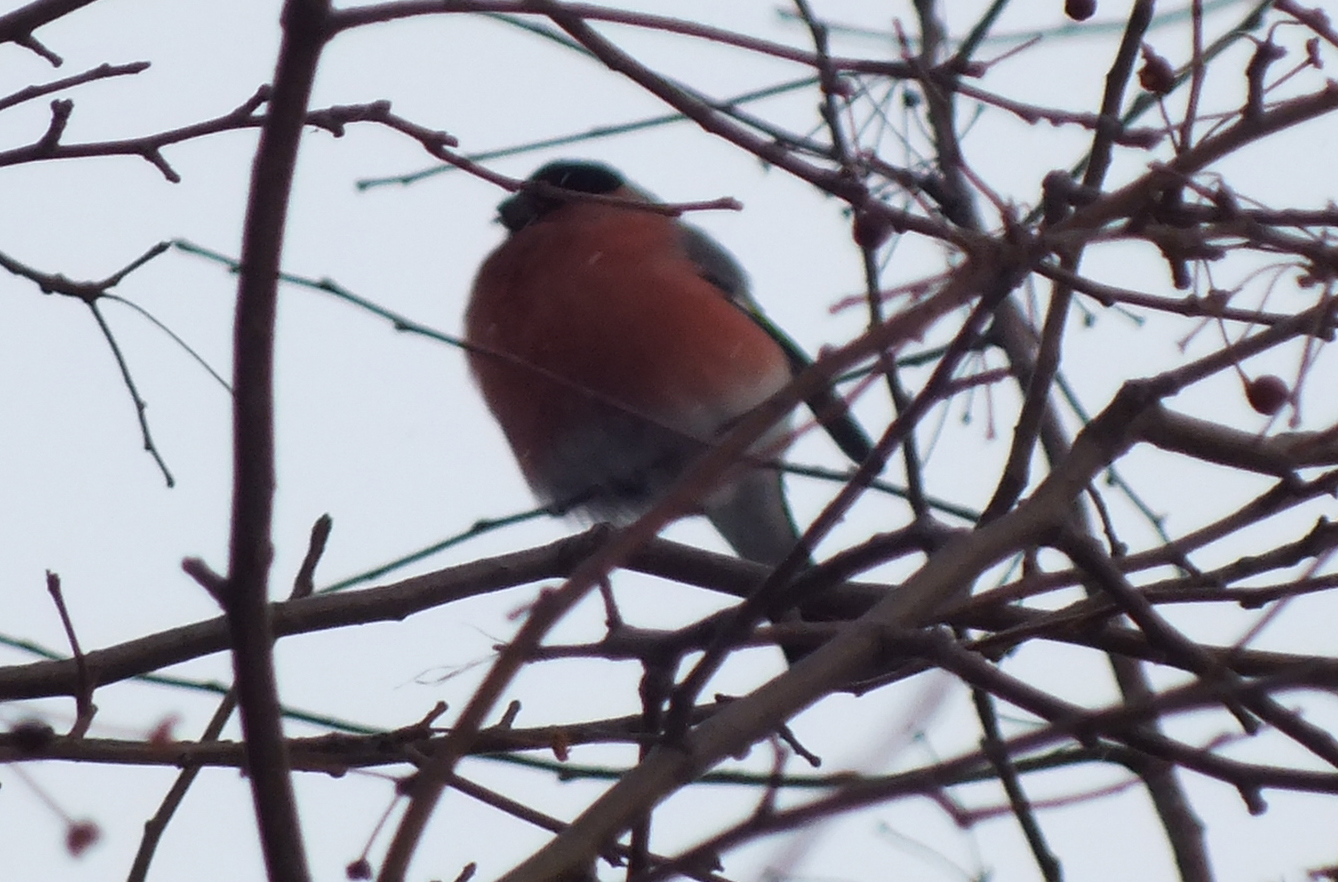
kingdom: Animalia
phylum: Chordata
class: Aves
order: Passeriformes
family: Fringillidae
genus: Pyrrhula
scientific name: Pyrrhula pyrrhula
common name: Eurasian bullfinch
